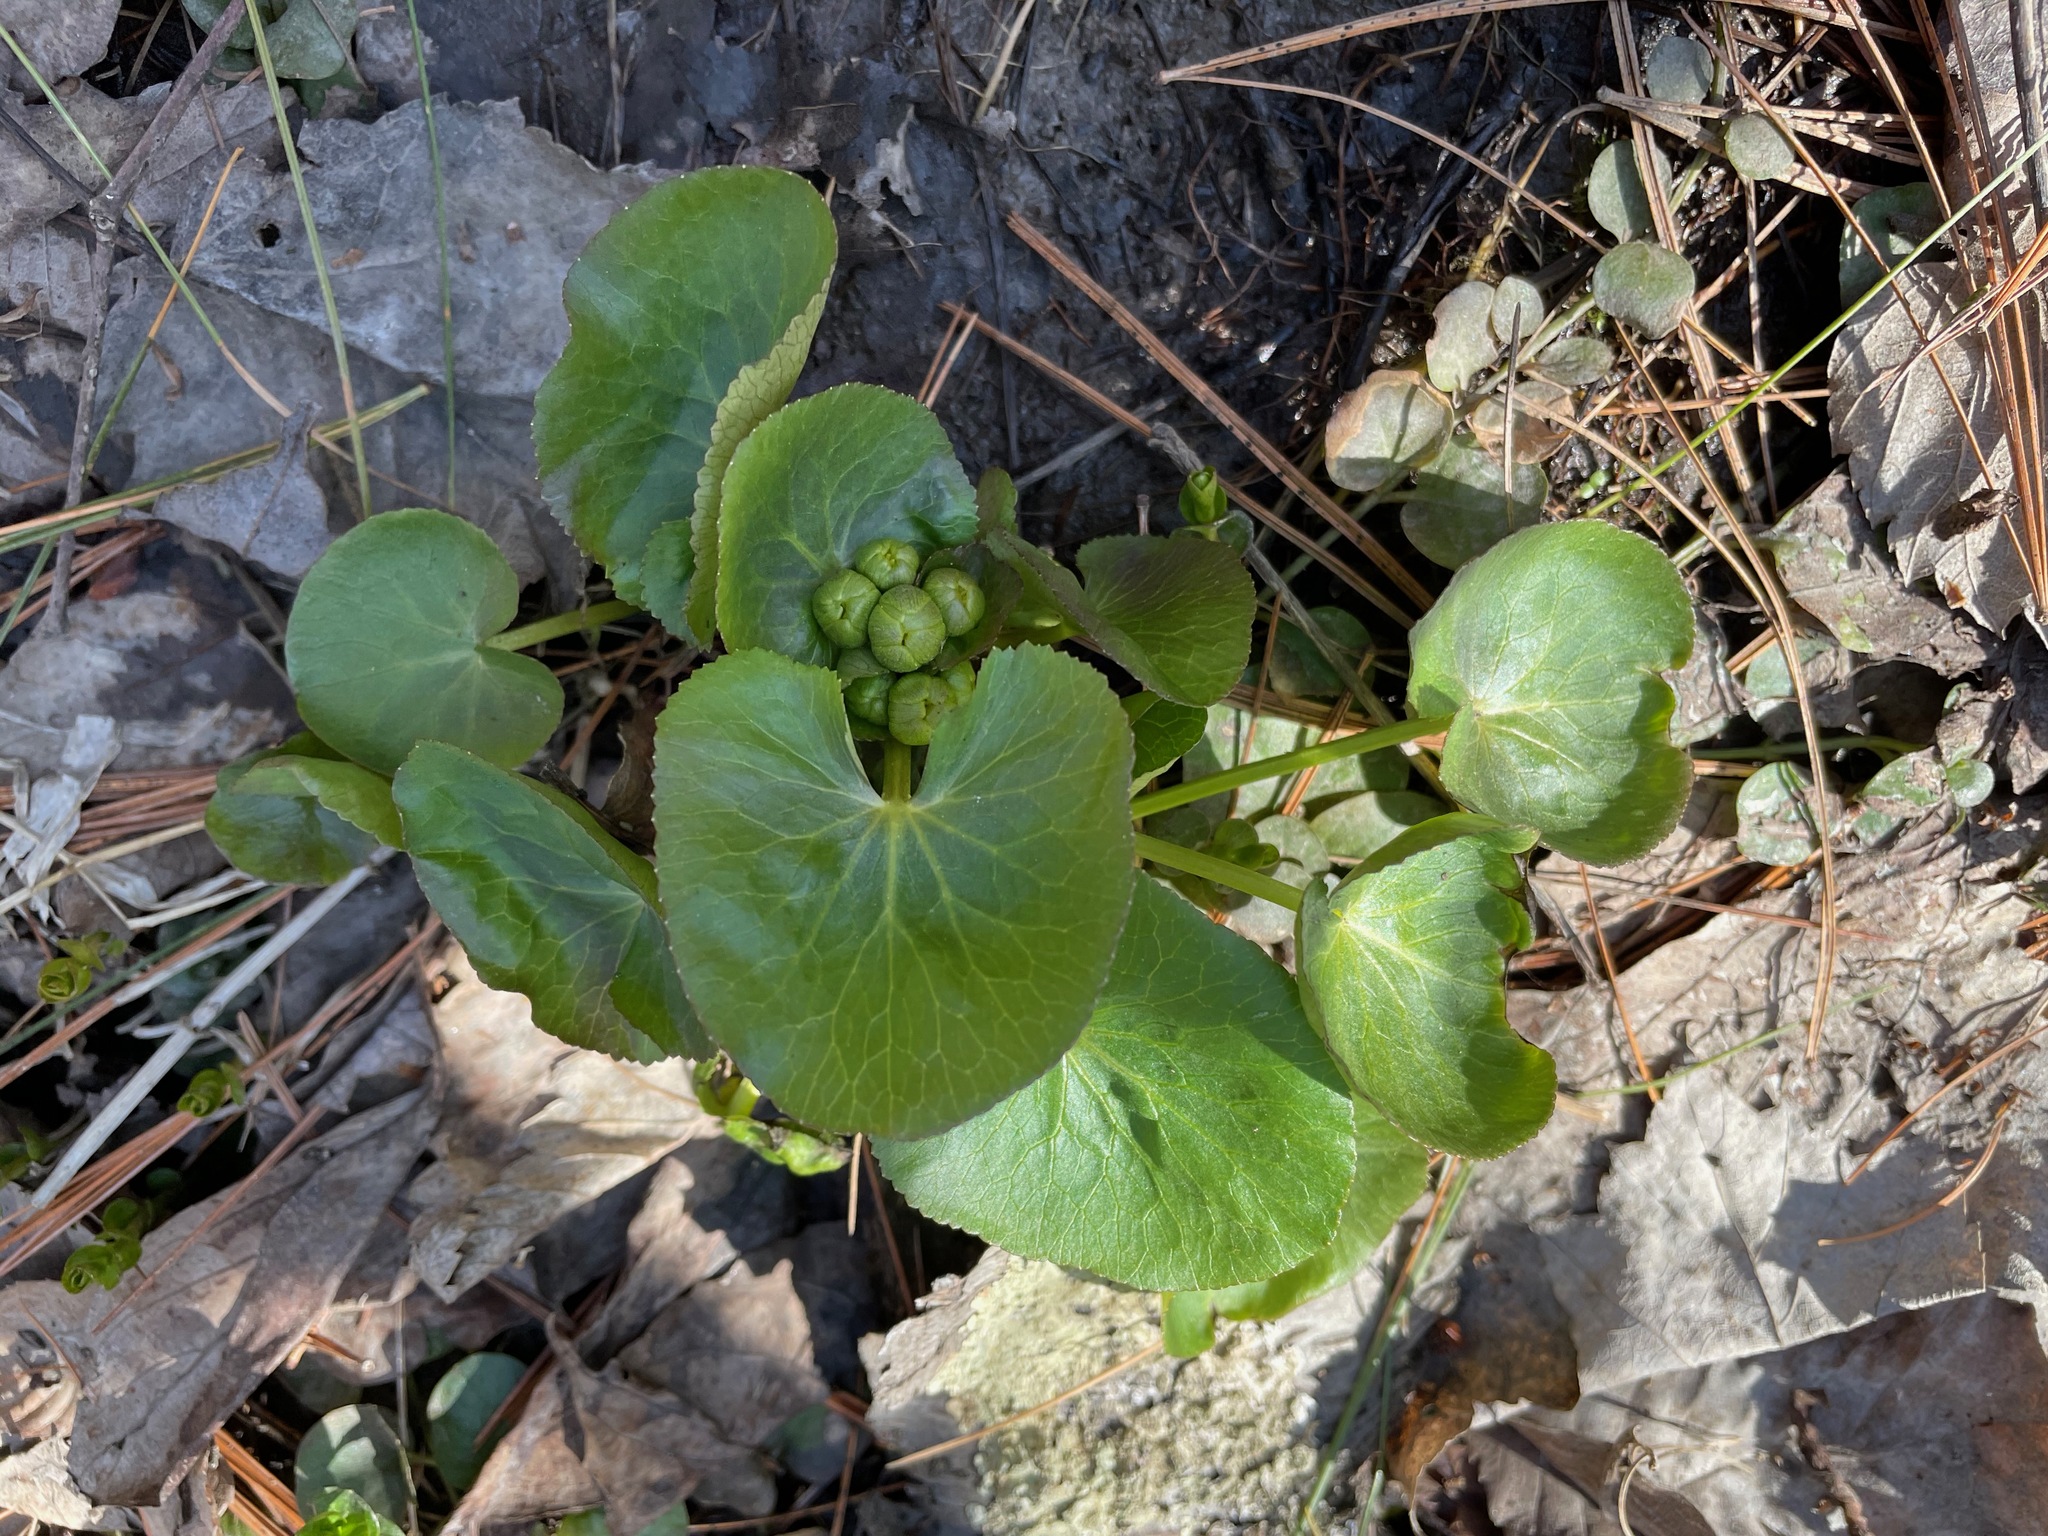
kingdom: Plantae
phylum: Tracheophyta
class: Magnoliopsida
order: Ranunculales
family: Ranunculaceae
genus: Caltha
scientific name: Caltha palustris
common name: Marsh marigold
